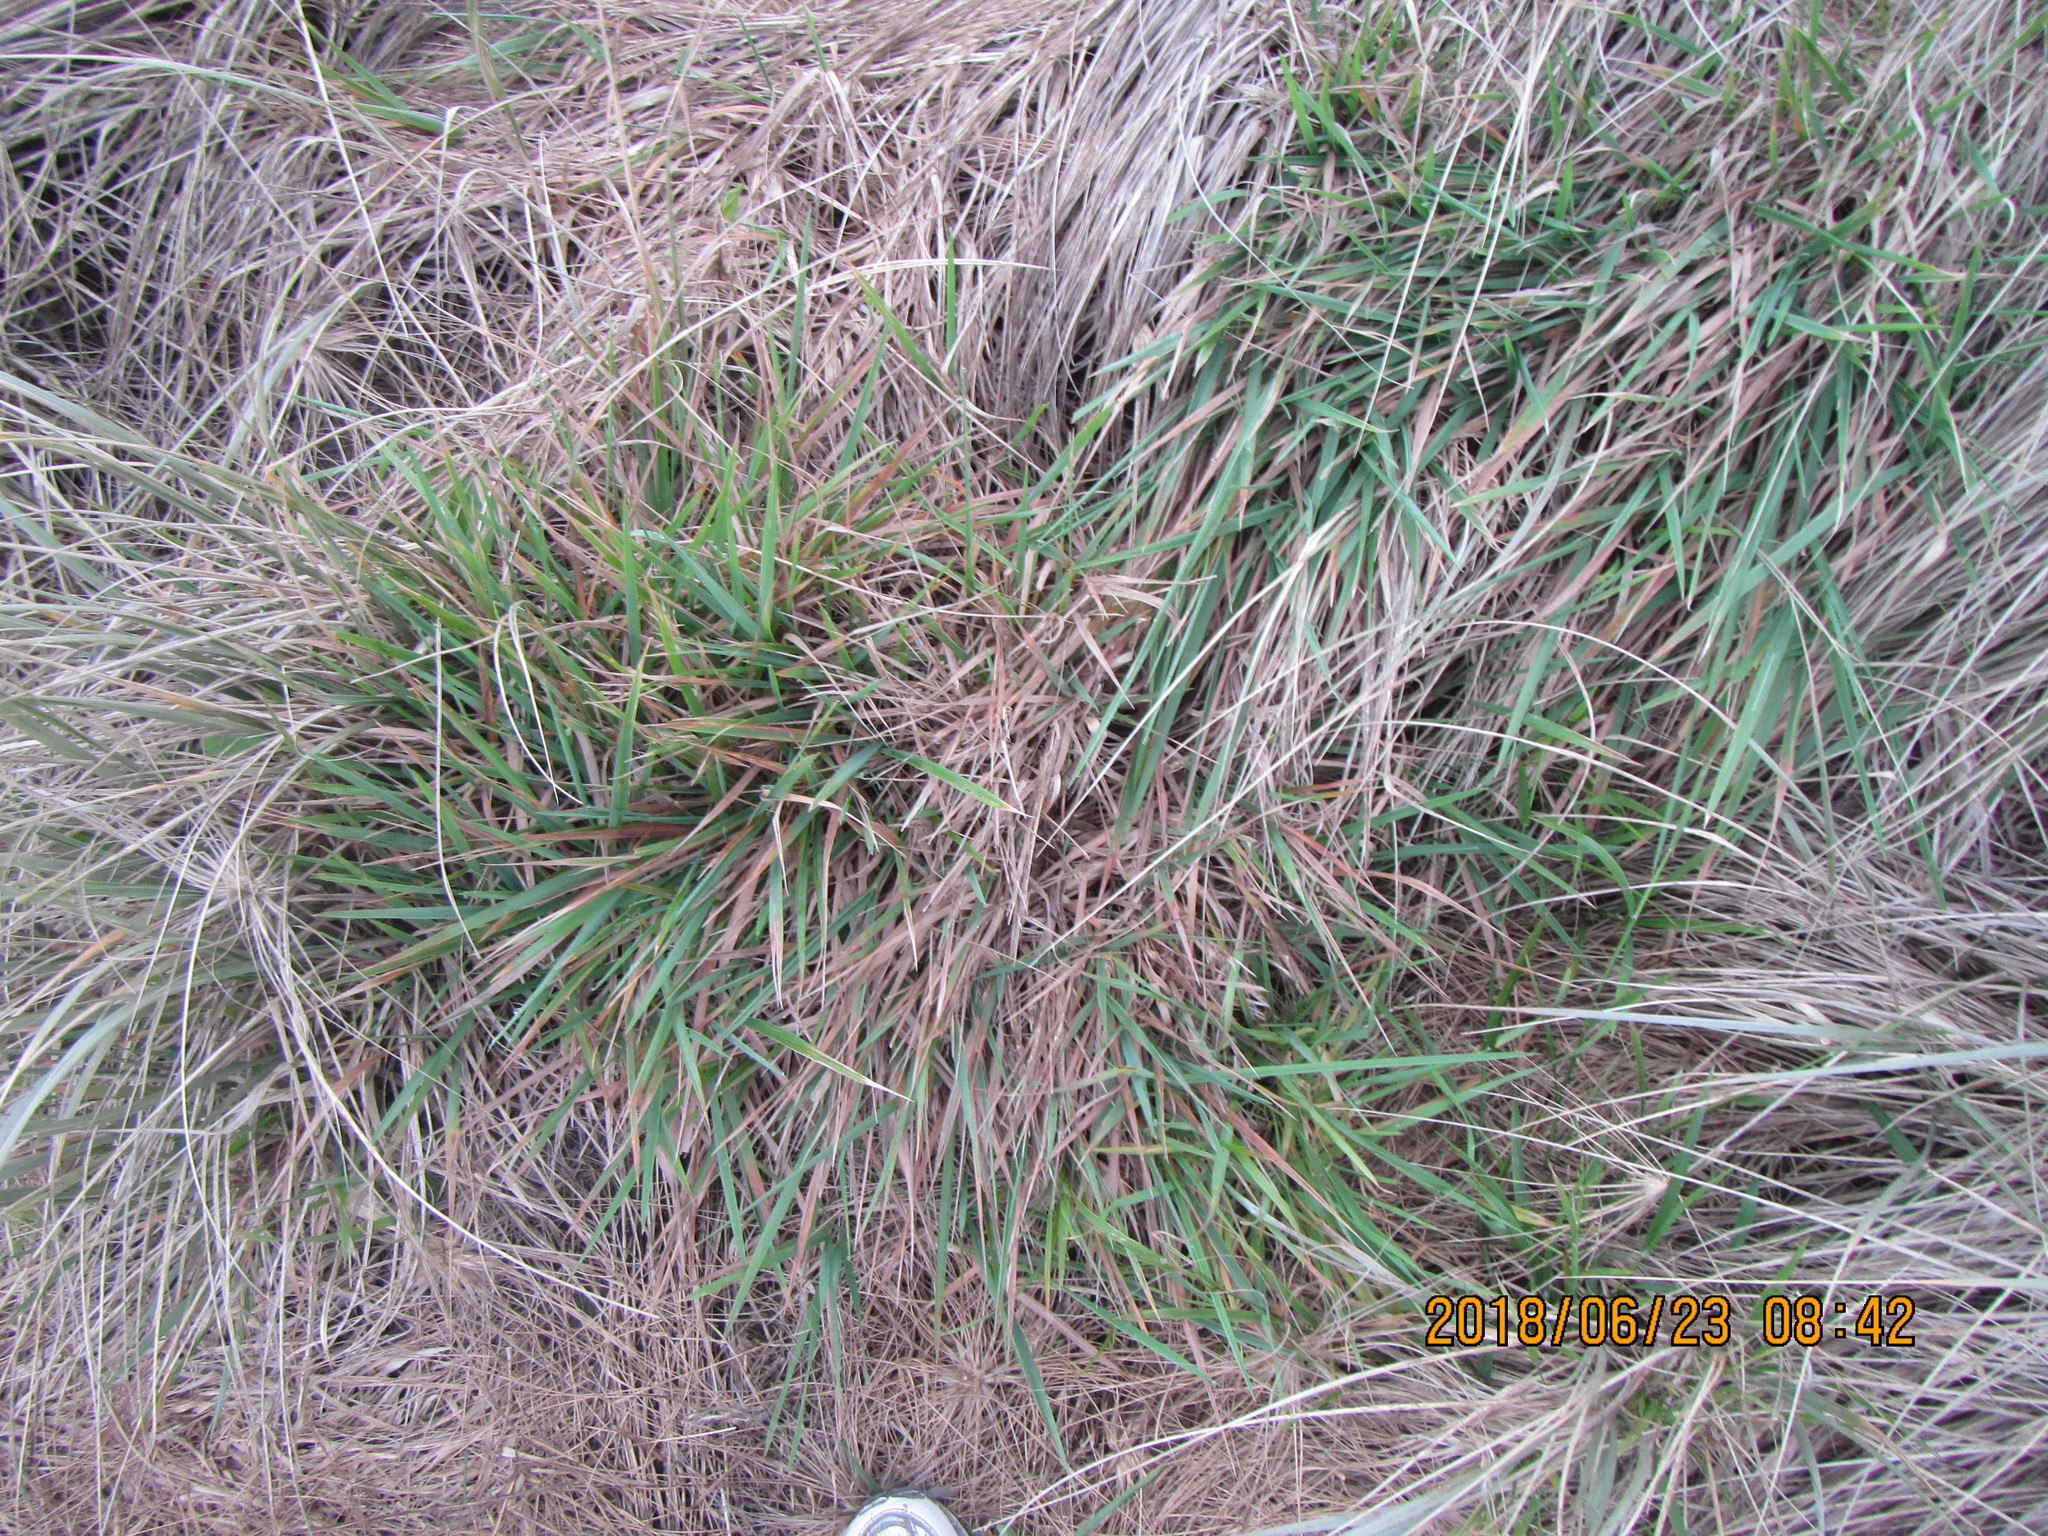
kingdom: Plantae
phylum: Tracheophyta
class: Liliopsida
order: Poales
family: Poaceae
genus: Lachnagrostis
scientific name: Lachnagrostis billardierei
